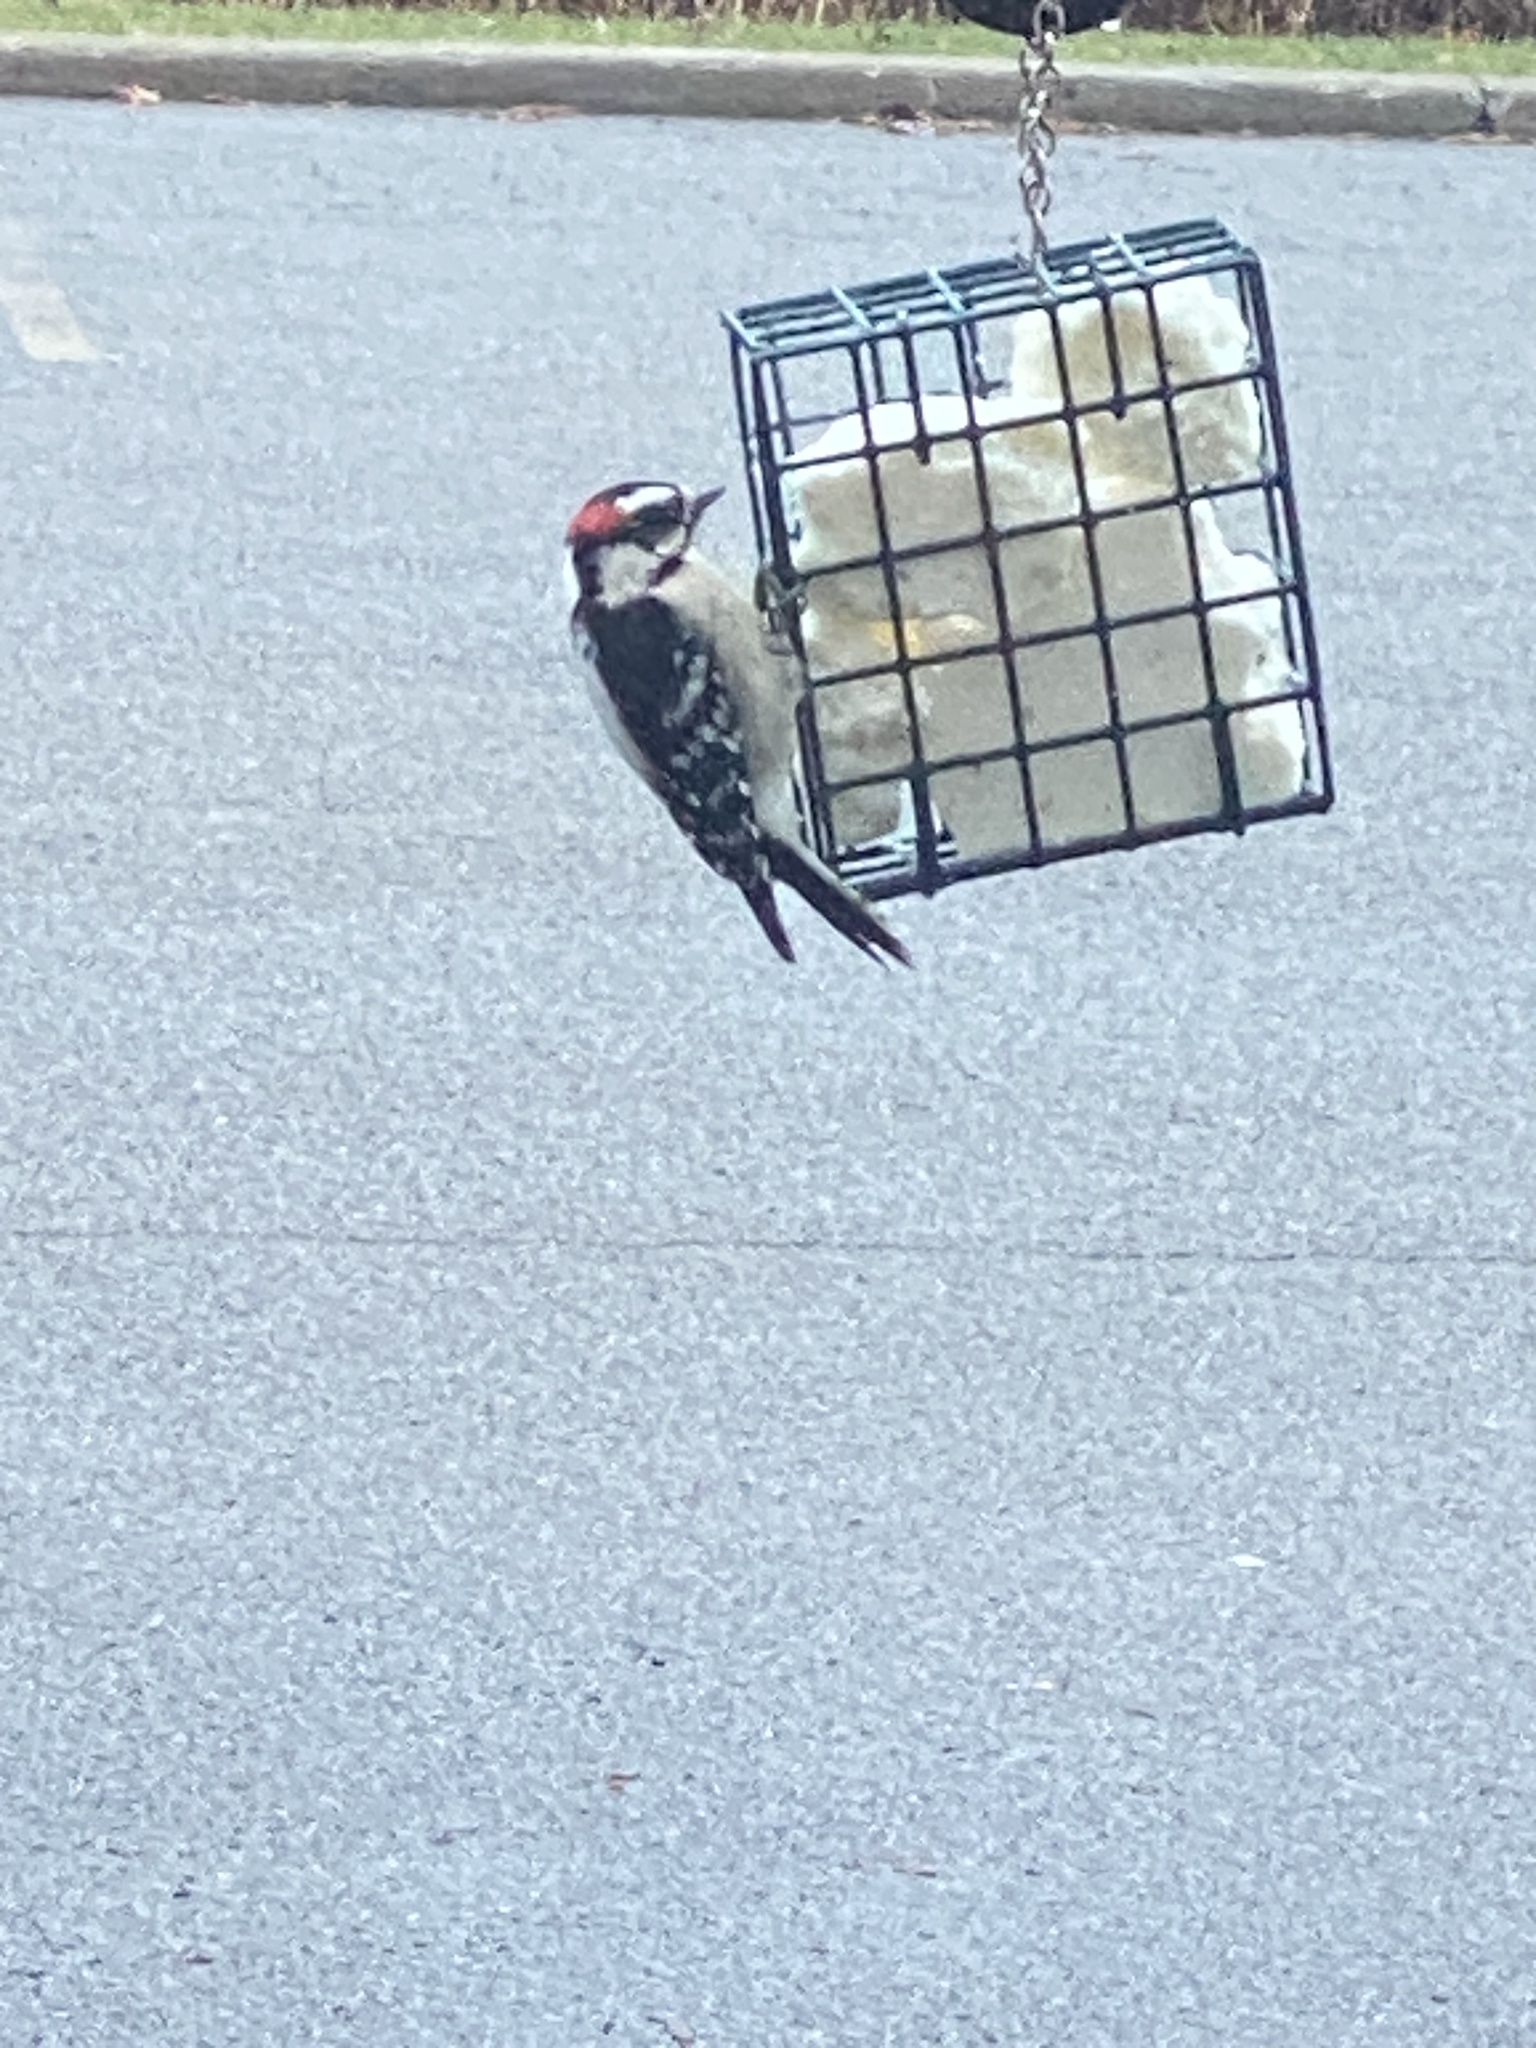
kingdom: Animalia
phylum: Chordata
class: Aves
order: Piciformes
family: Picidae
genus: Dryobates
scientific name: Dryobates pubescens
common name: Downy woodpecker
